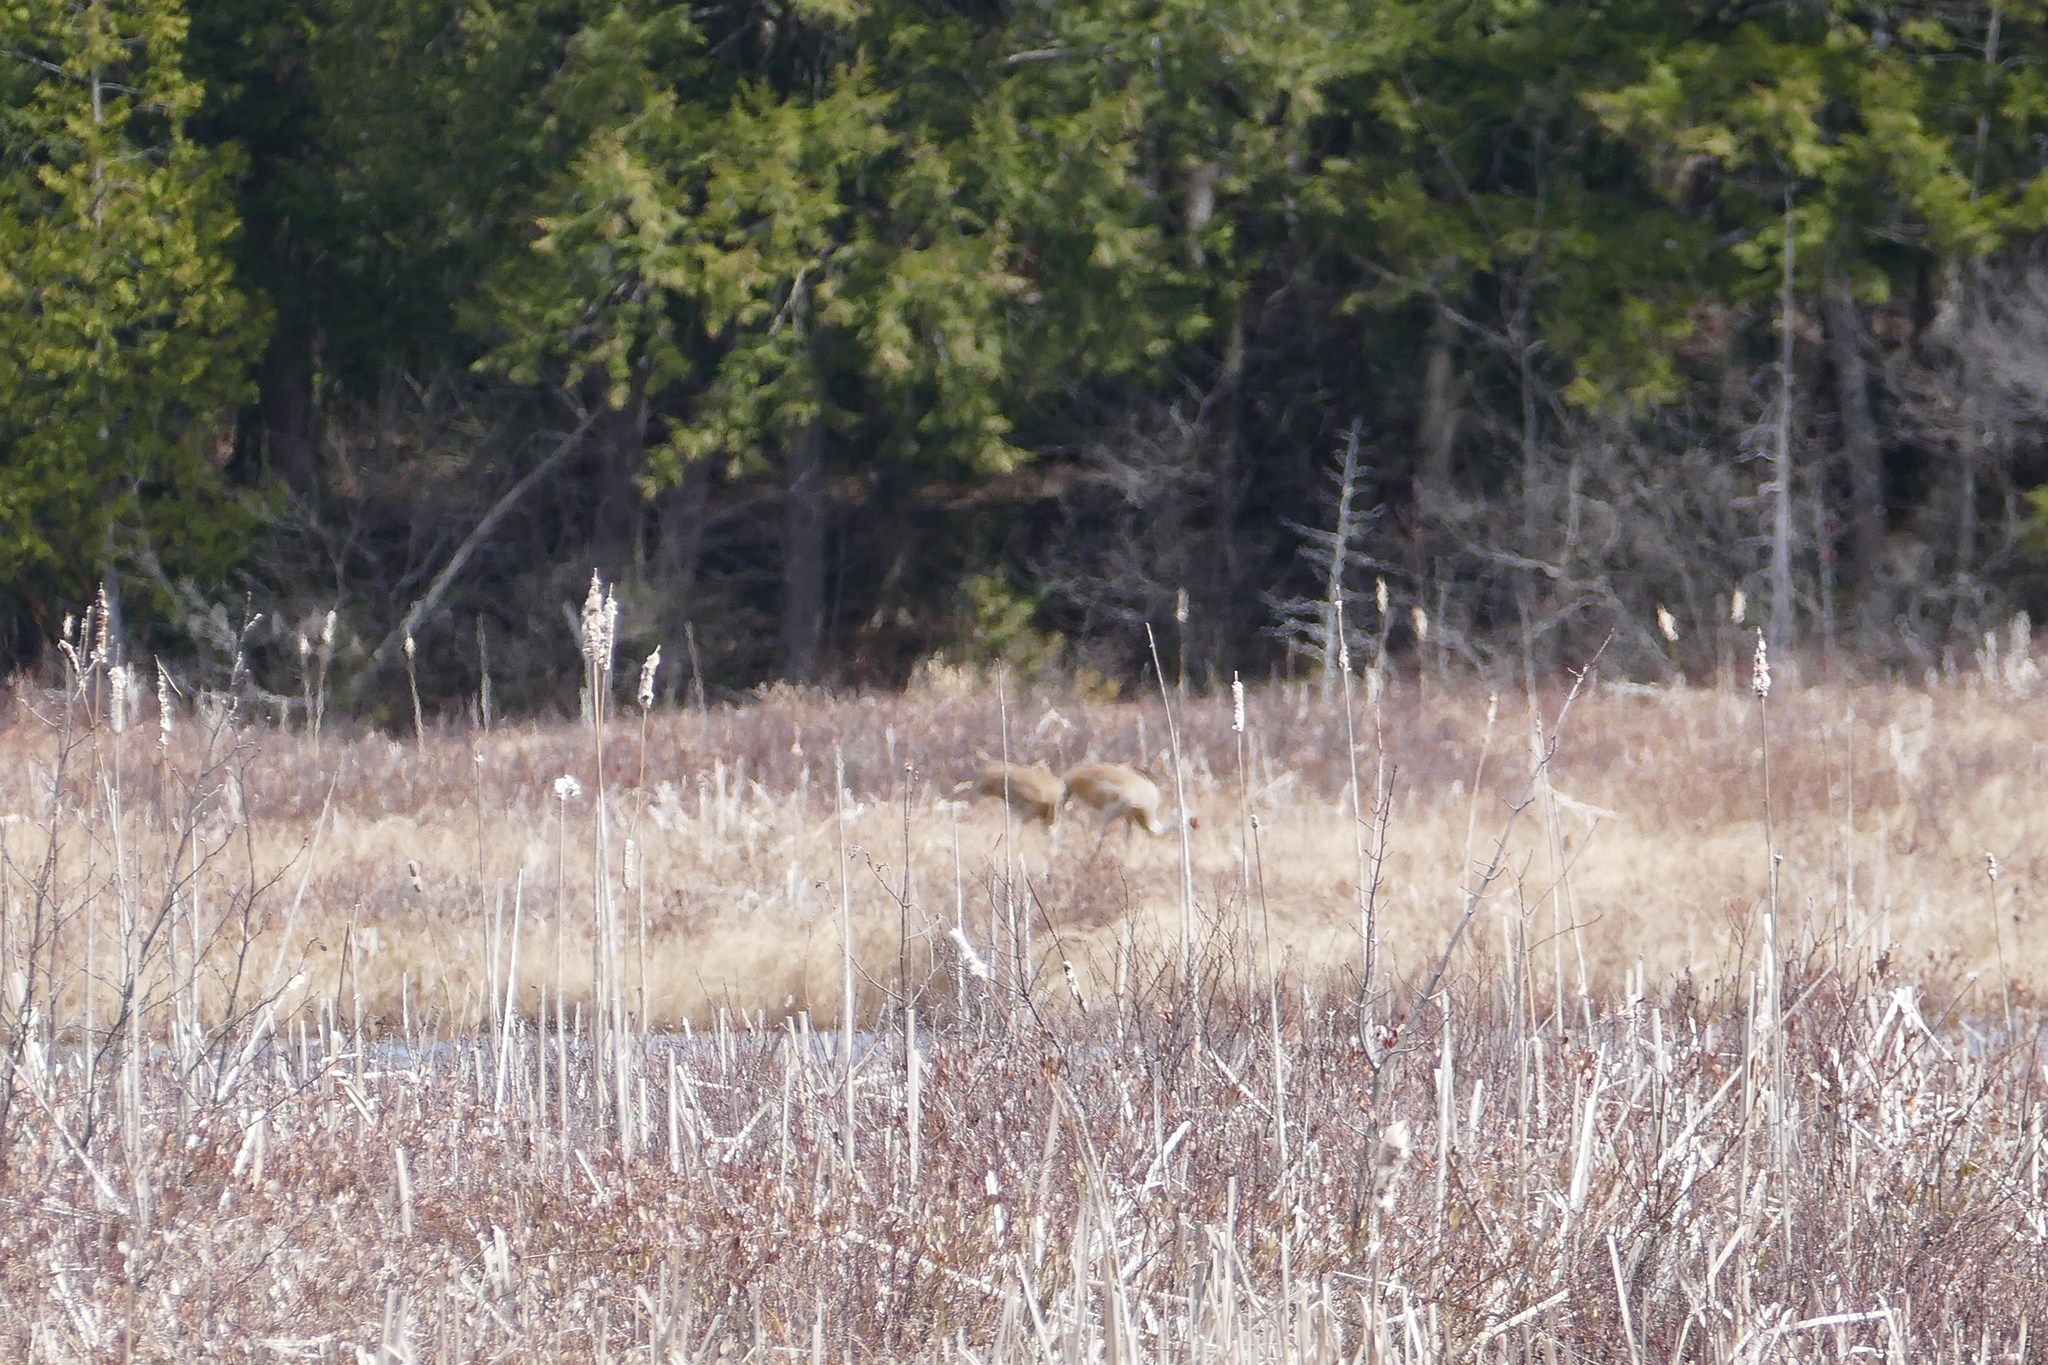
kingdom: Animalia
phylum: Chordata
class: Aves
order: Gruiformes
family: Gruidae
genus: Grus
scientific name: Grus canadensis
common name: Sandhill crane
